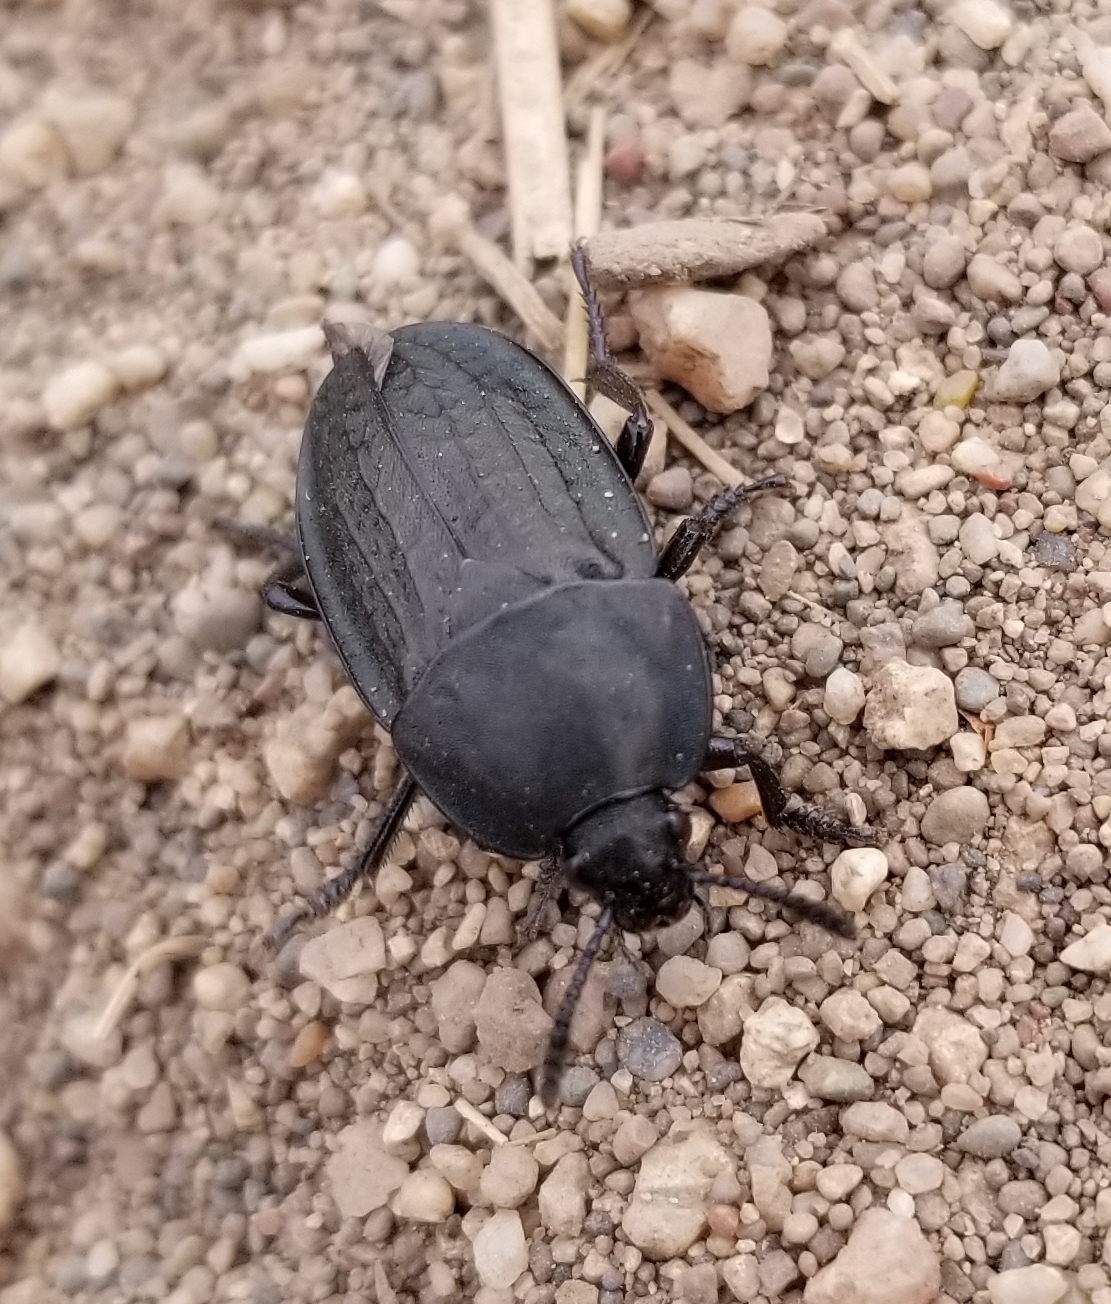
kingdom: Animalia
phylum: Arthropoda
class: Insecta
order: Coleoptera
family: Staphylinidae
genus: Heterosilpha
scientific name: Heterosilpha ramosa
